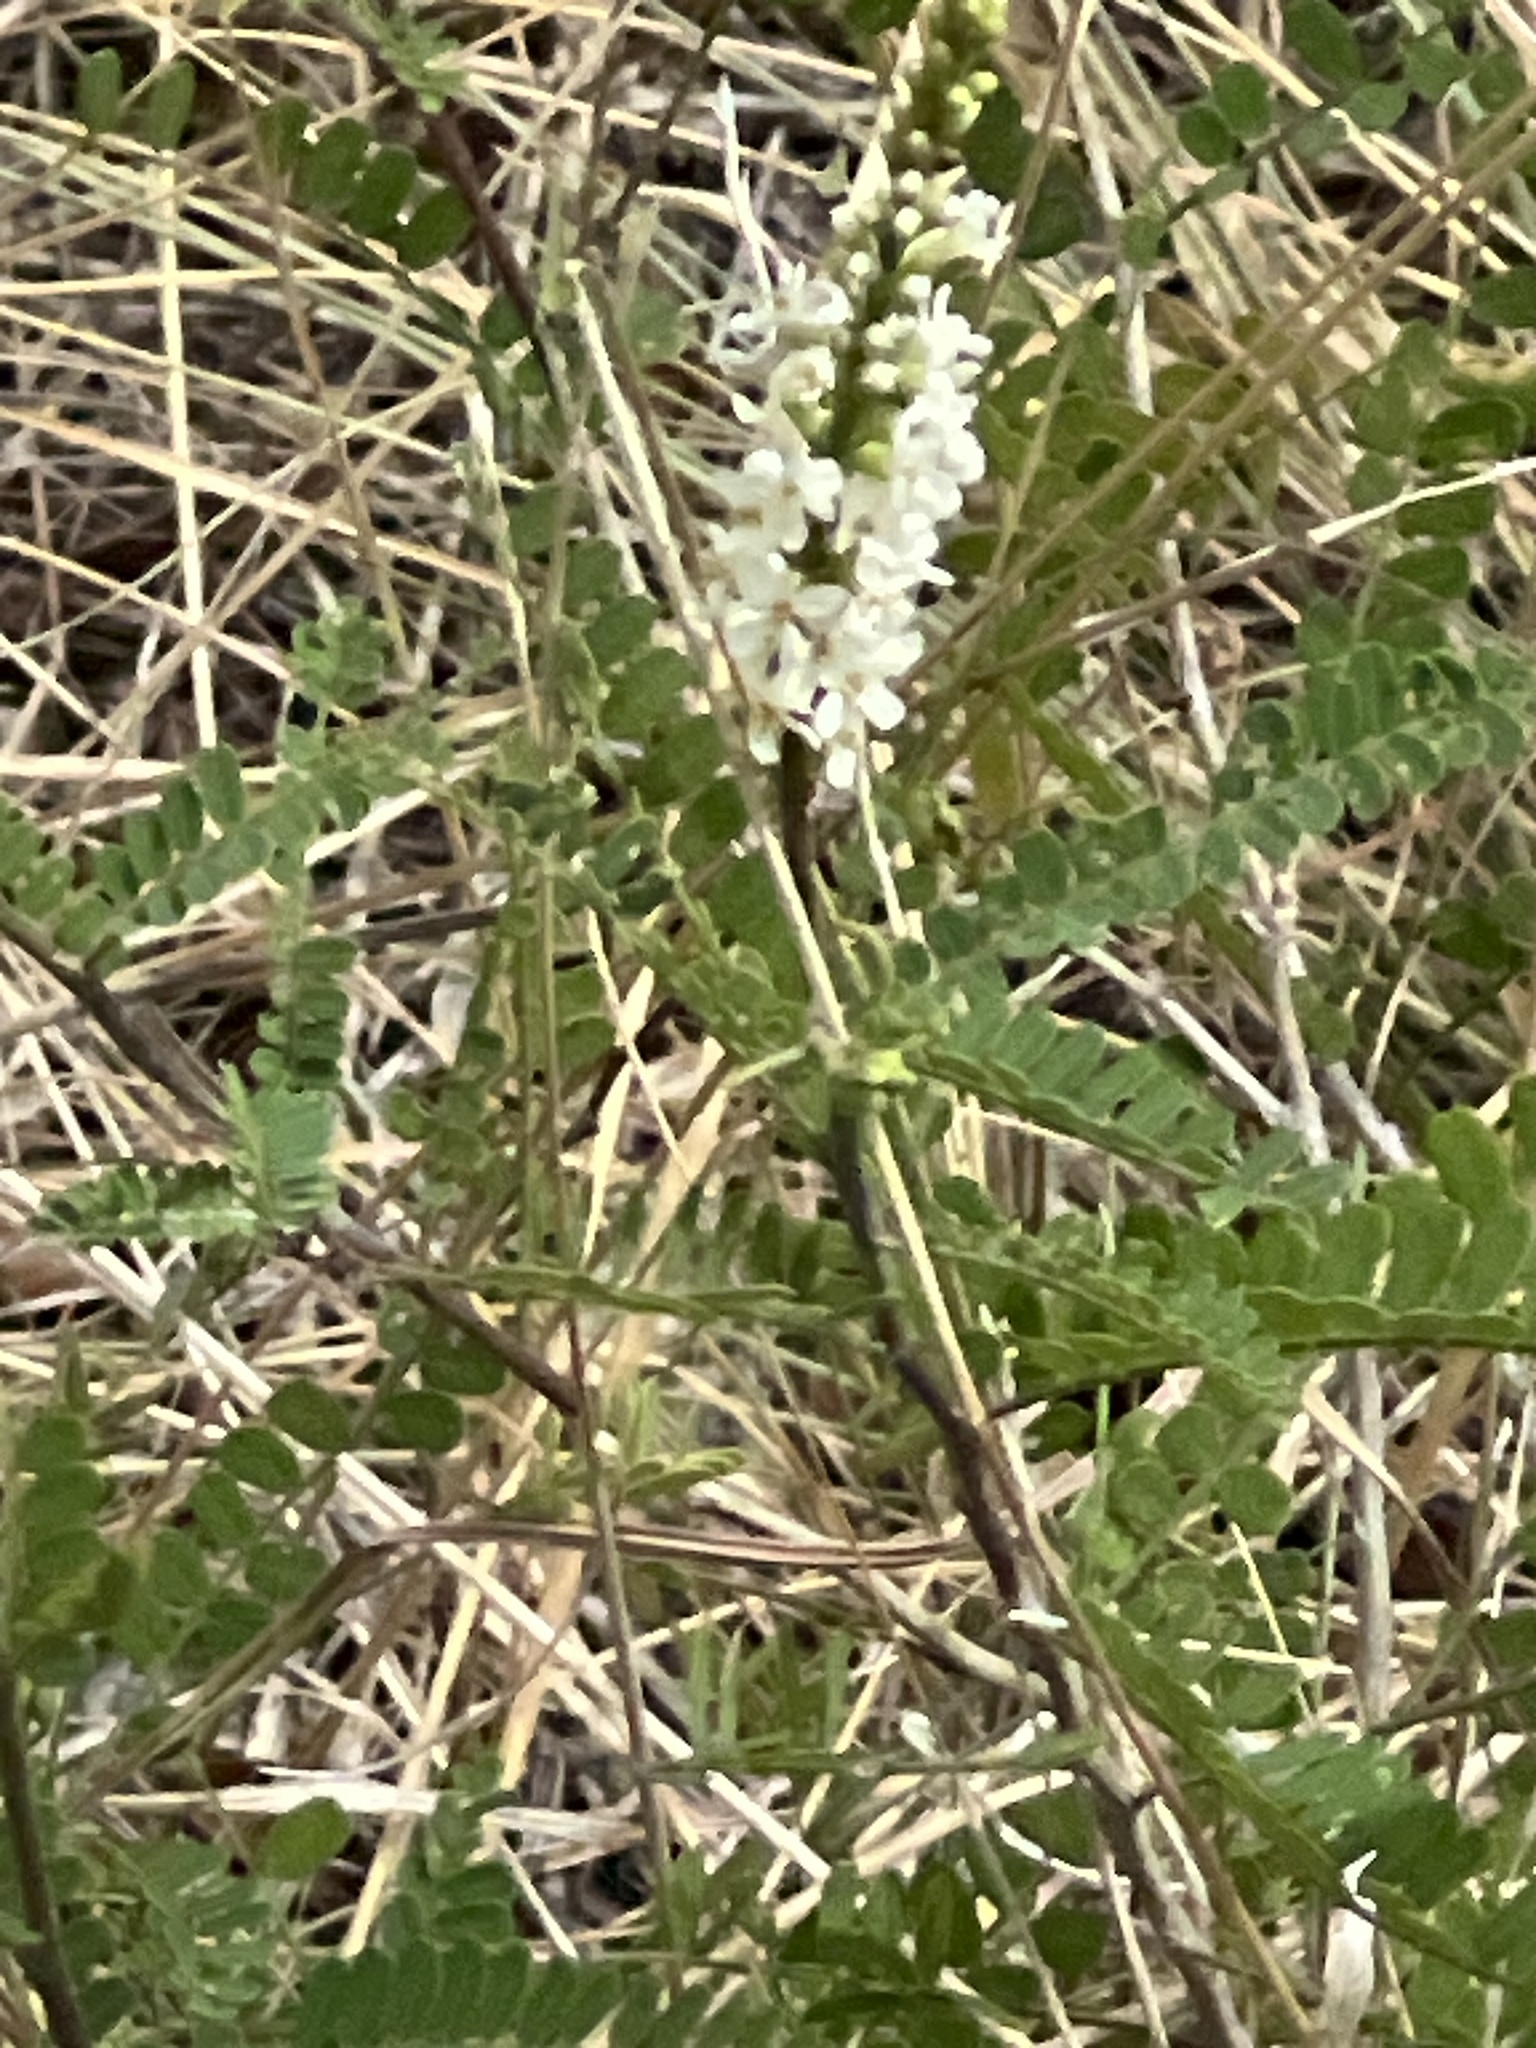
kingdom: Plantae
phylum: Tracheophyta
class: Magnoliopsida
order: Fabales
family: Fabaceae
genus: Eysenhardtia
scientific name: Eysenhardtia texana
